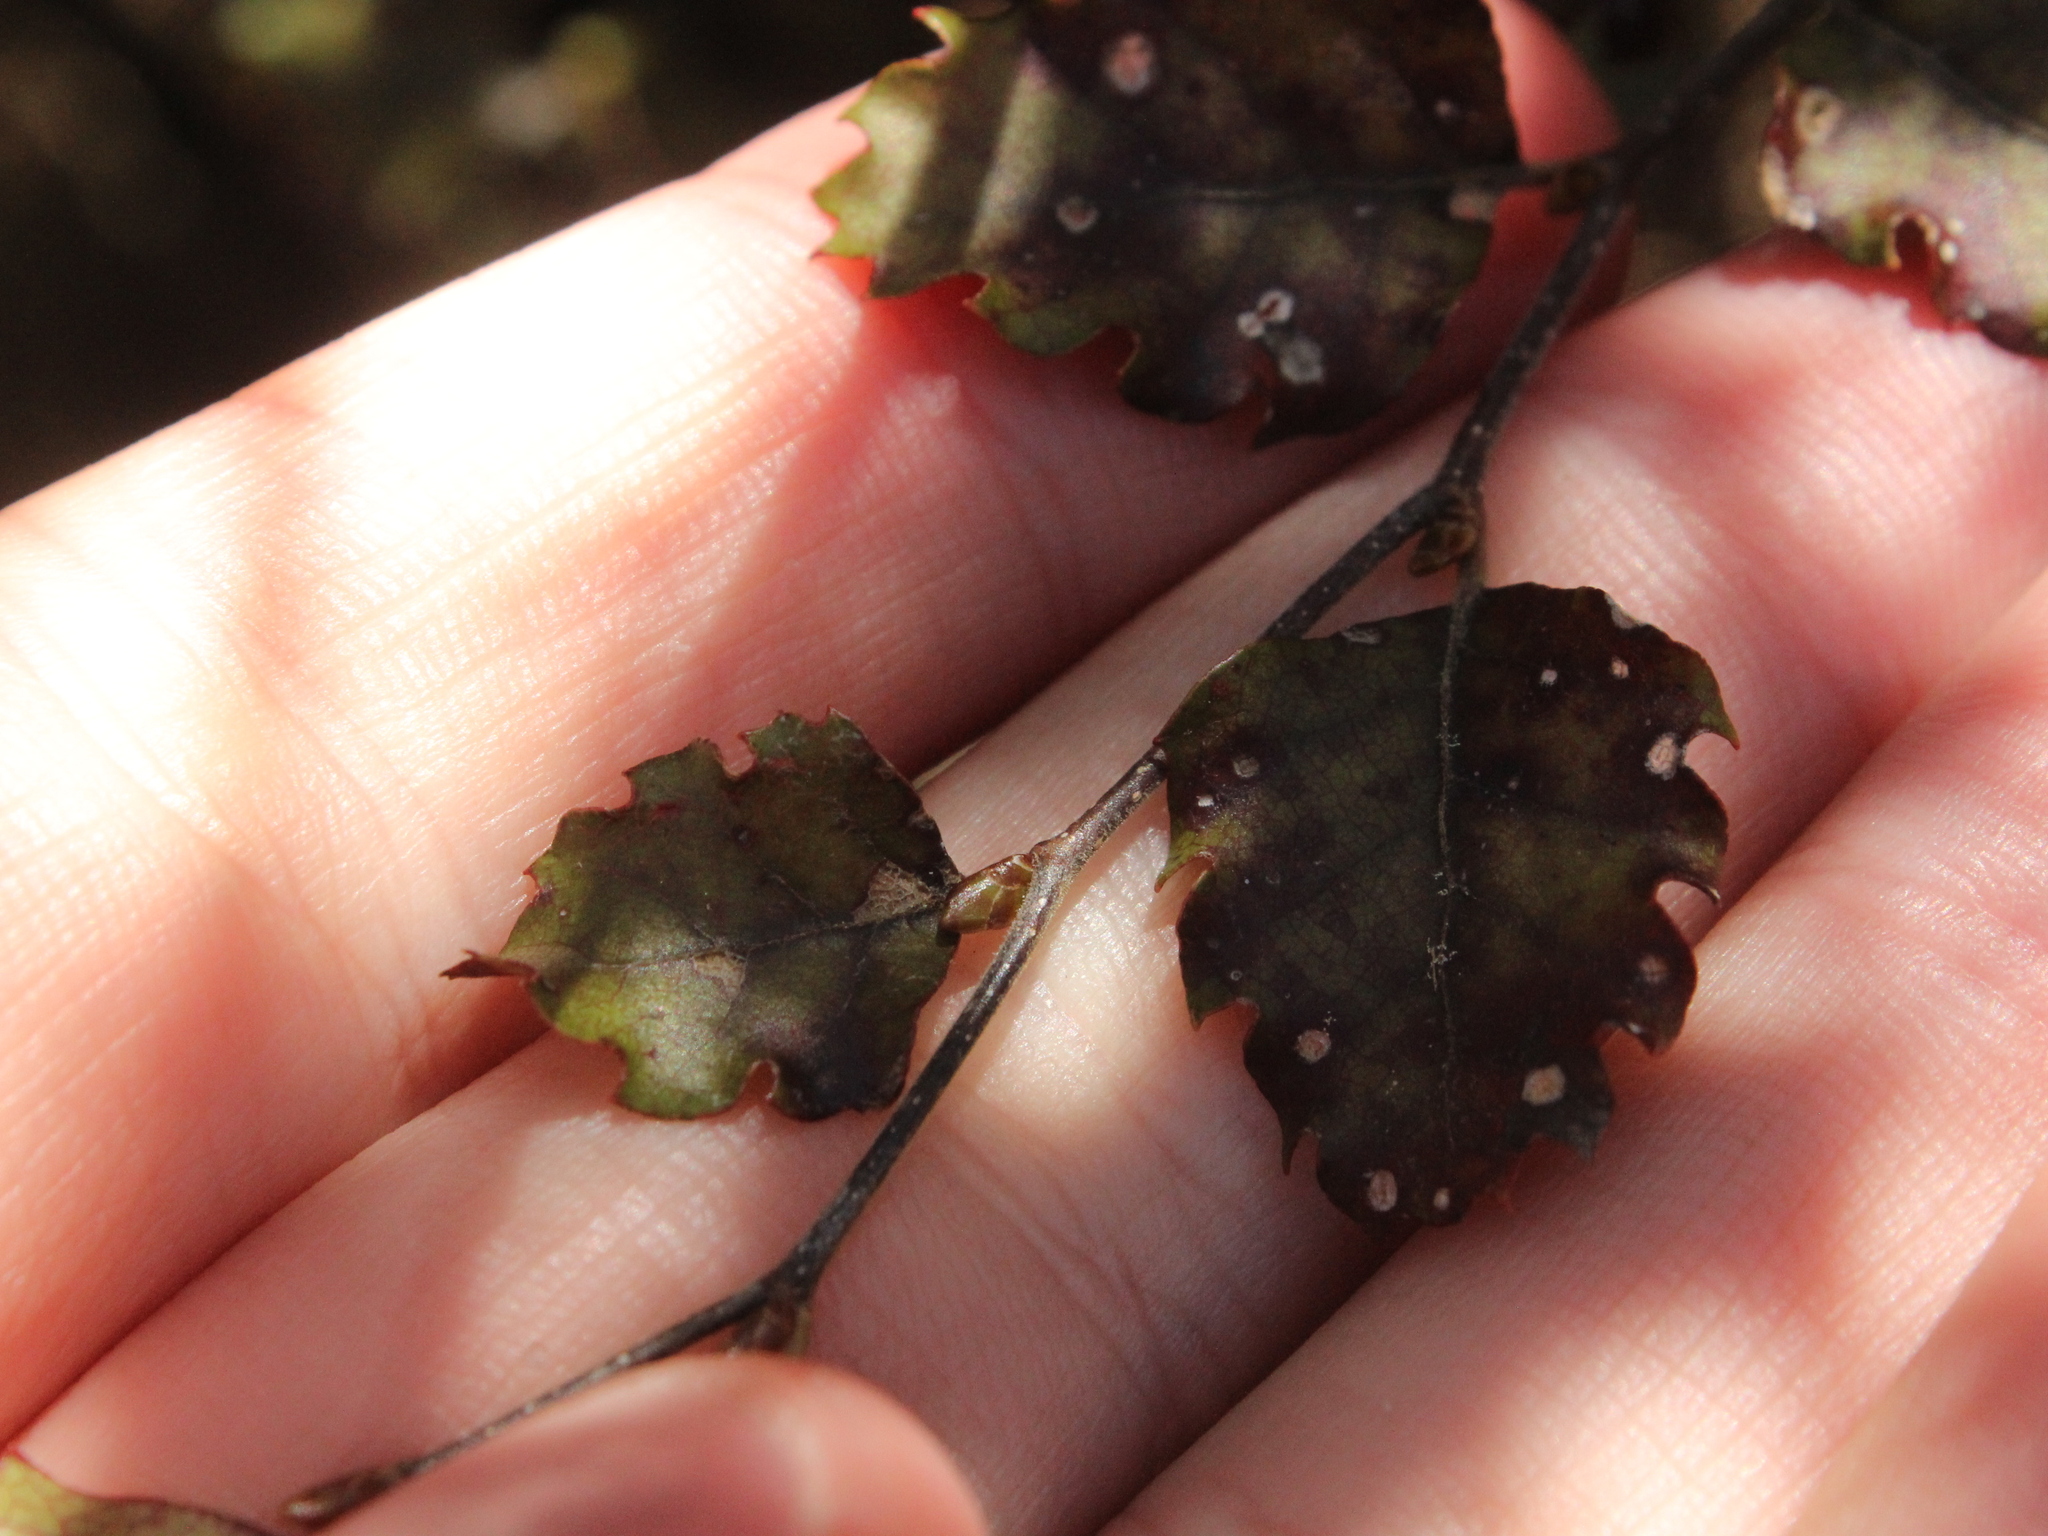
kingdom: Plantae
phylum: Tracheophyta
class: Magnoliopsida
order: Fagales
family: Nothofagaceae
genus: Nothofagus
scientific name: Nothofagus fusca
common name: Red beech
